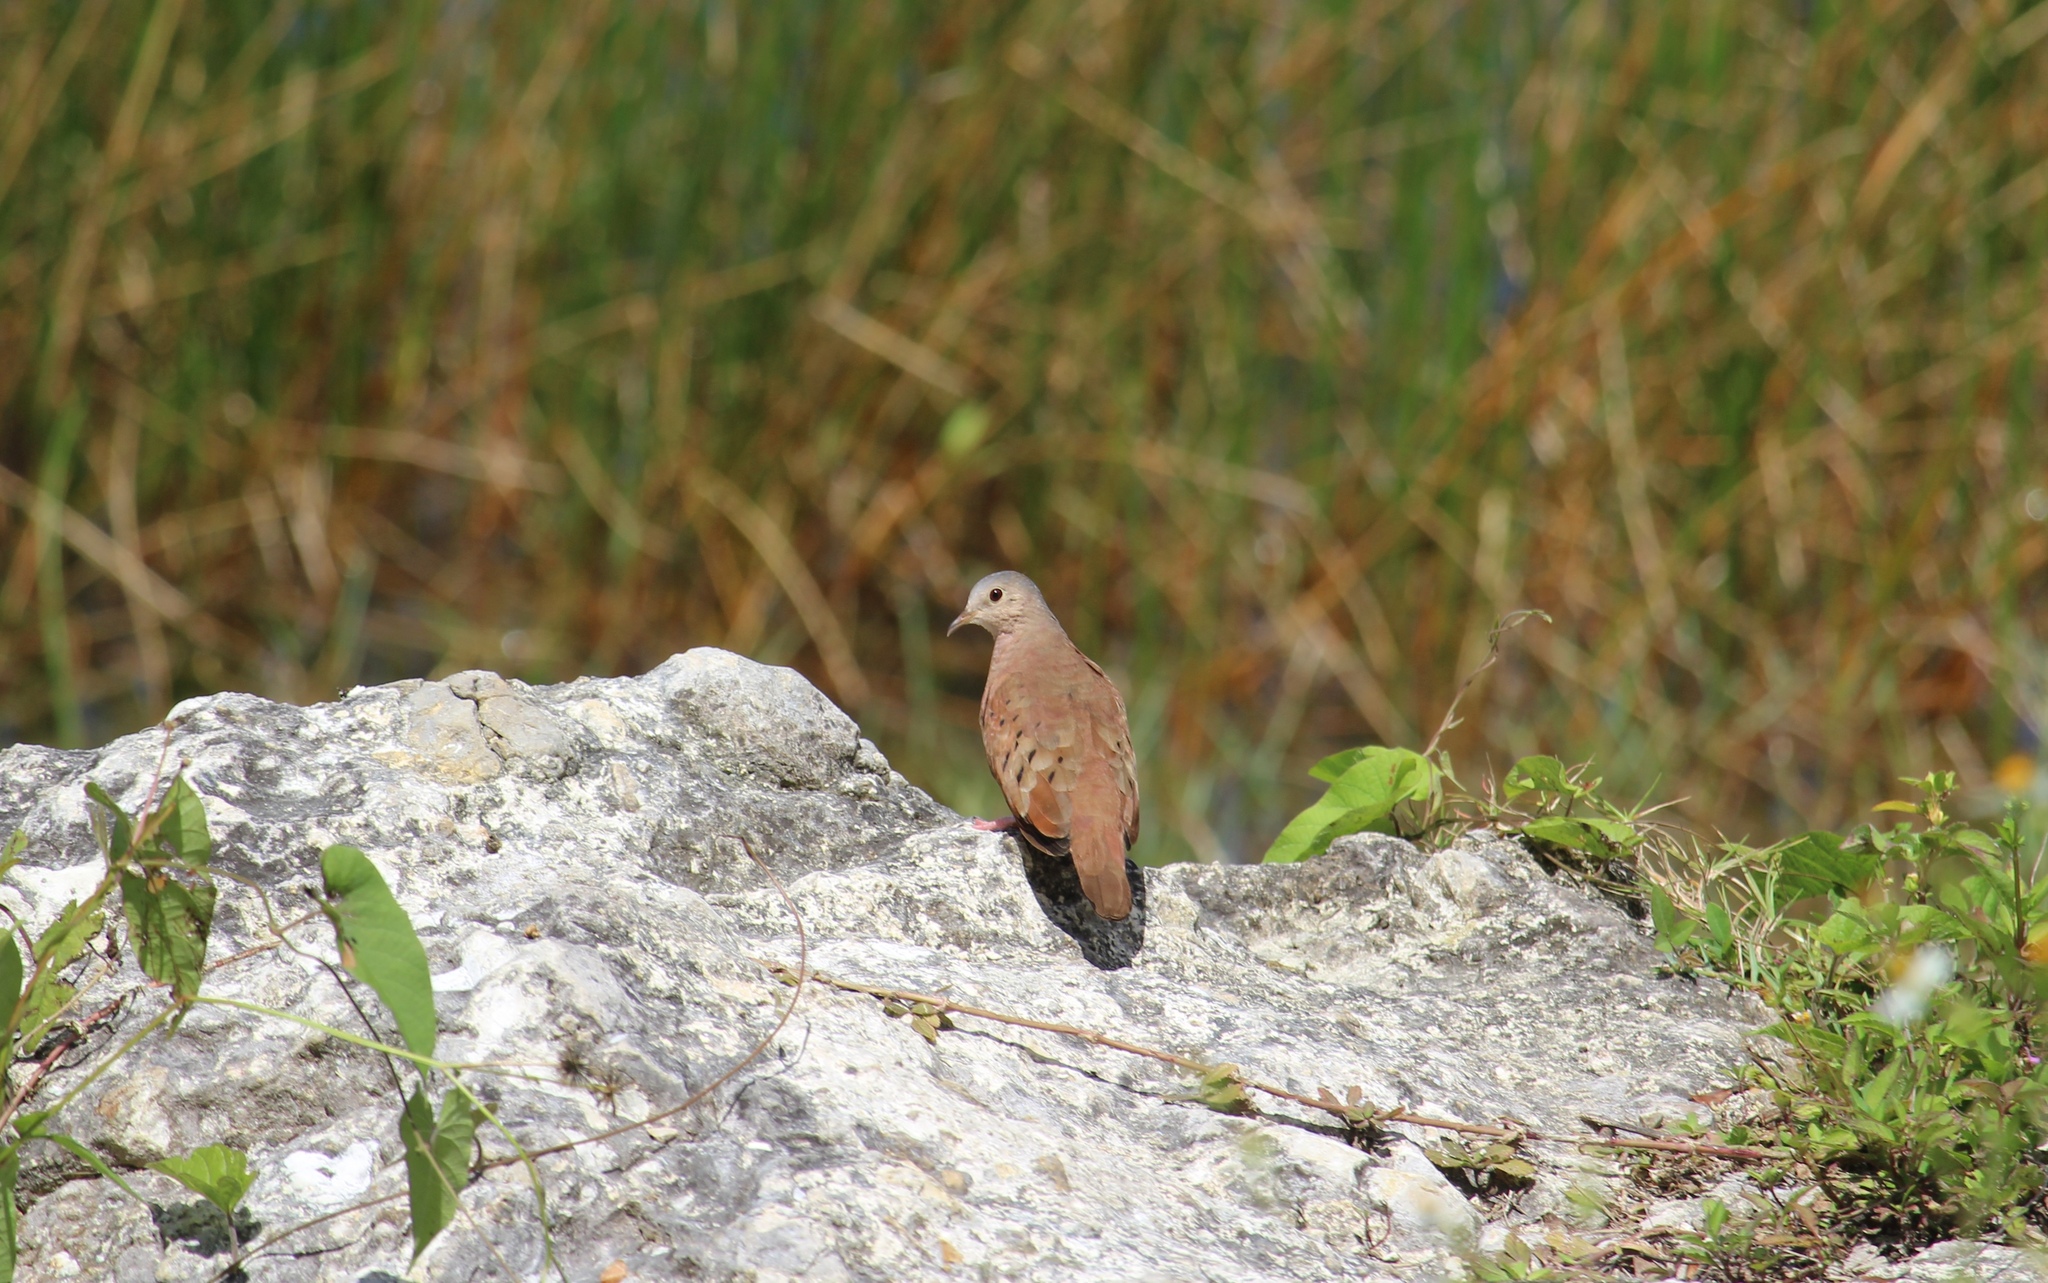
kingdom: Animalia
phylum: Chordata
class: Aves
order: Columbiformes
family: Columbidae
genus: Columbina
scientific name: Columbina talpacoti
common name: Ruddy ground dove
